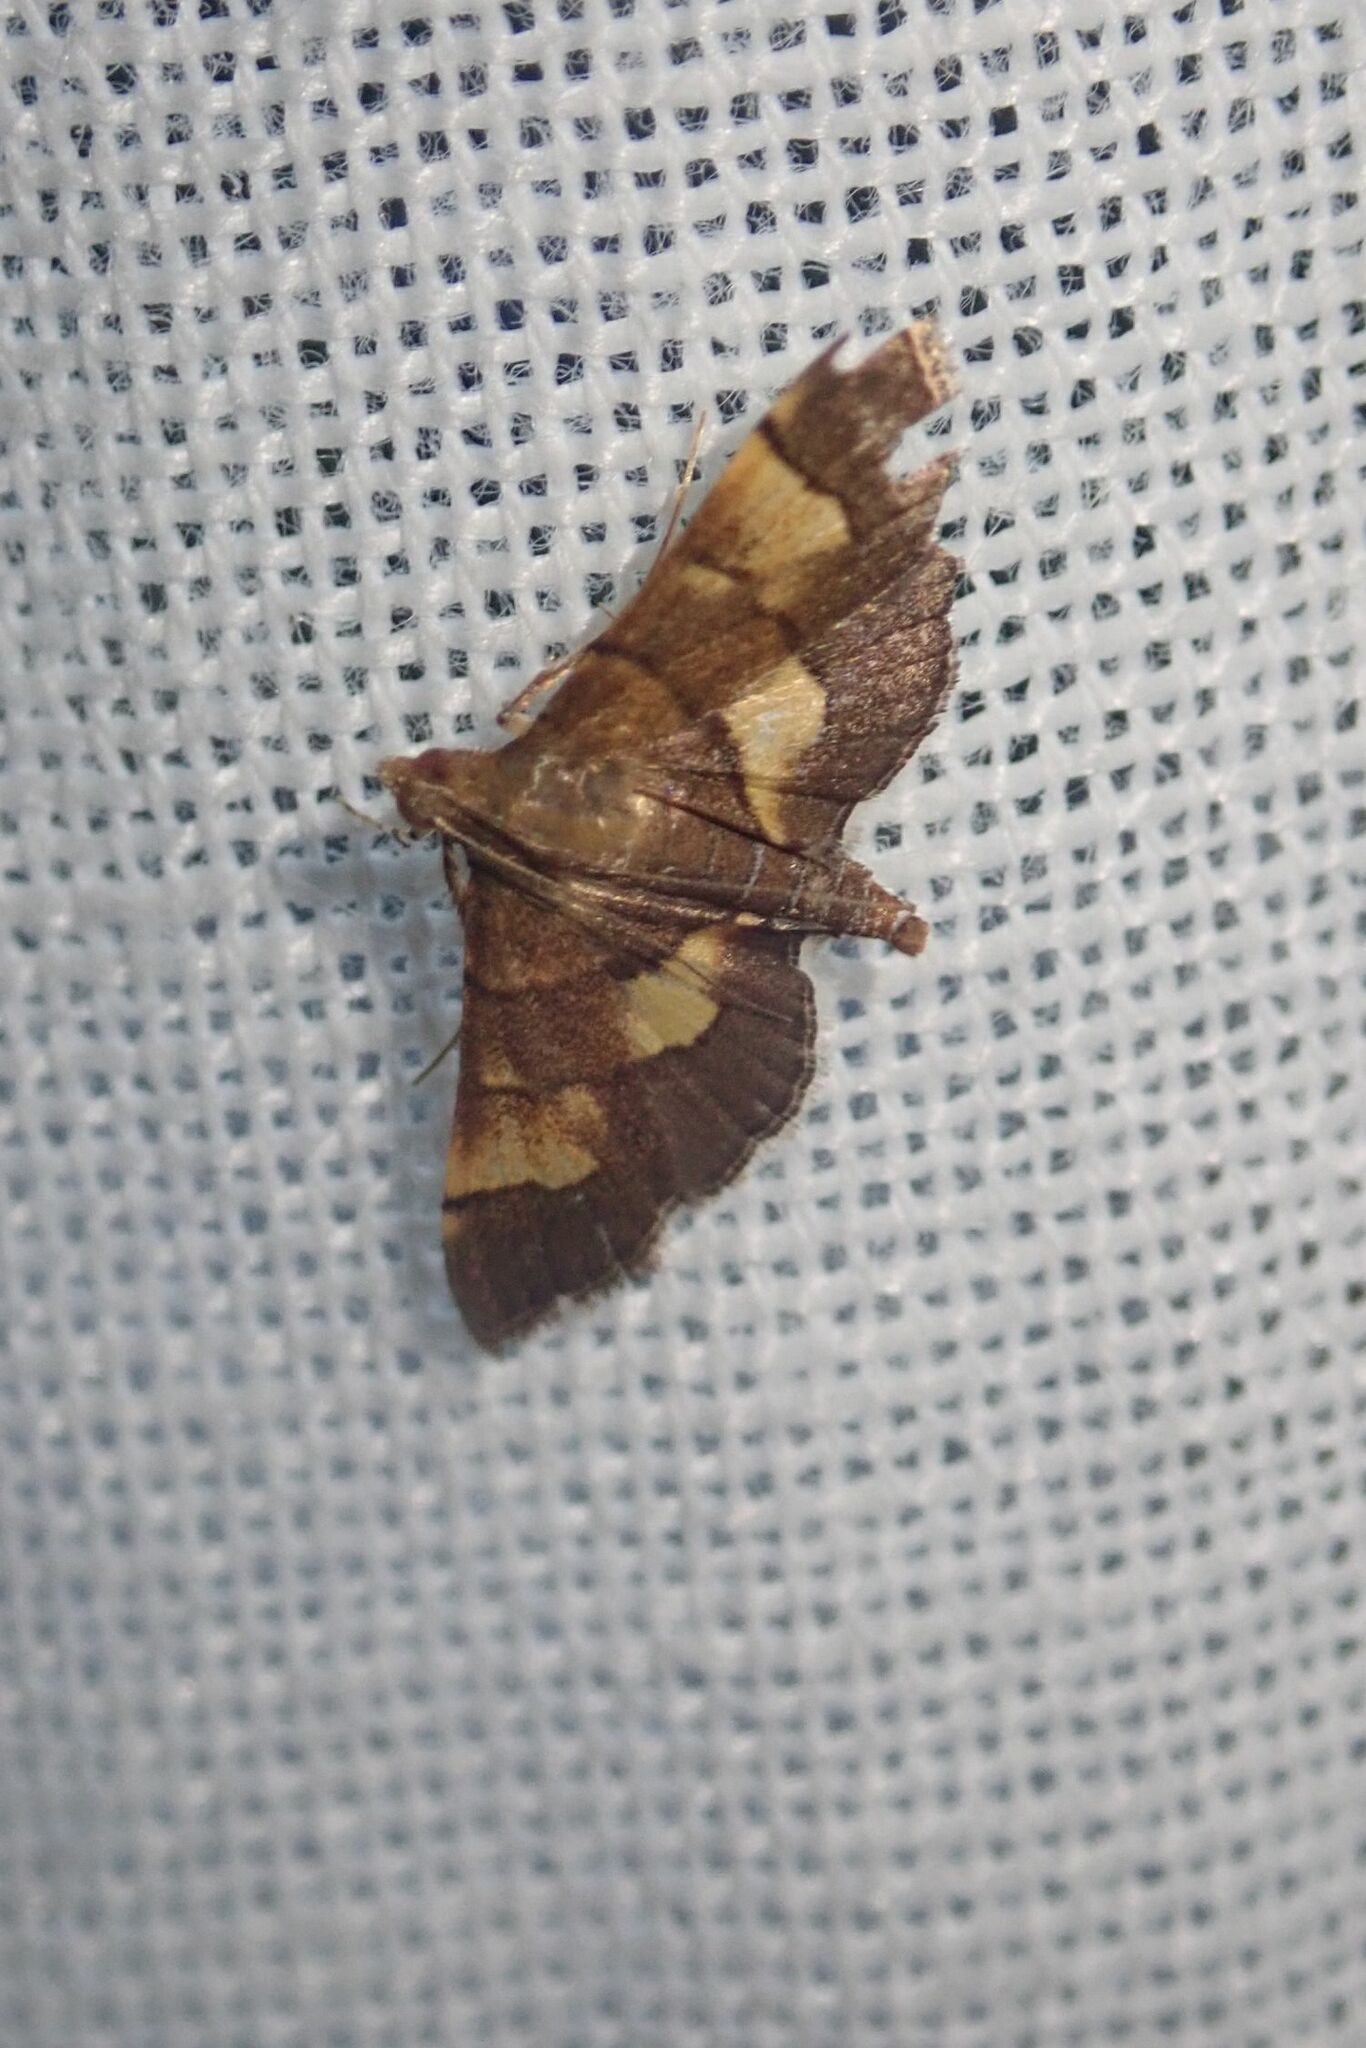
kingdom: Animalia
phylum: Arthropoda
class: Insecta
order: Lepidoptera
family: Crambidae
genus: Syngamia
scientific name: Syngamia falsidicalis
